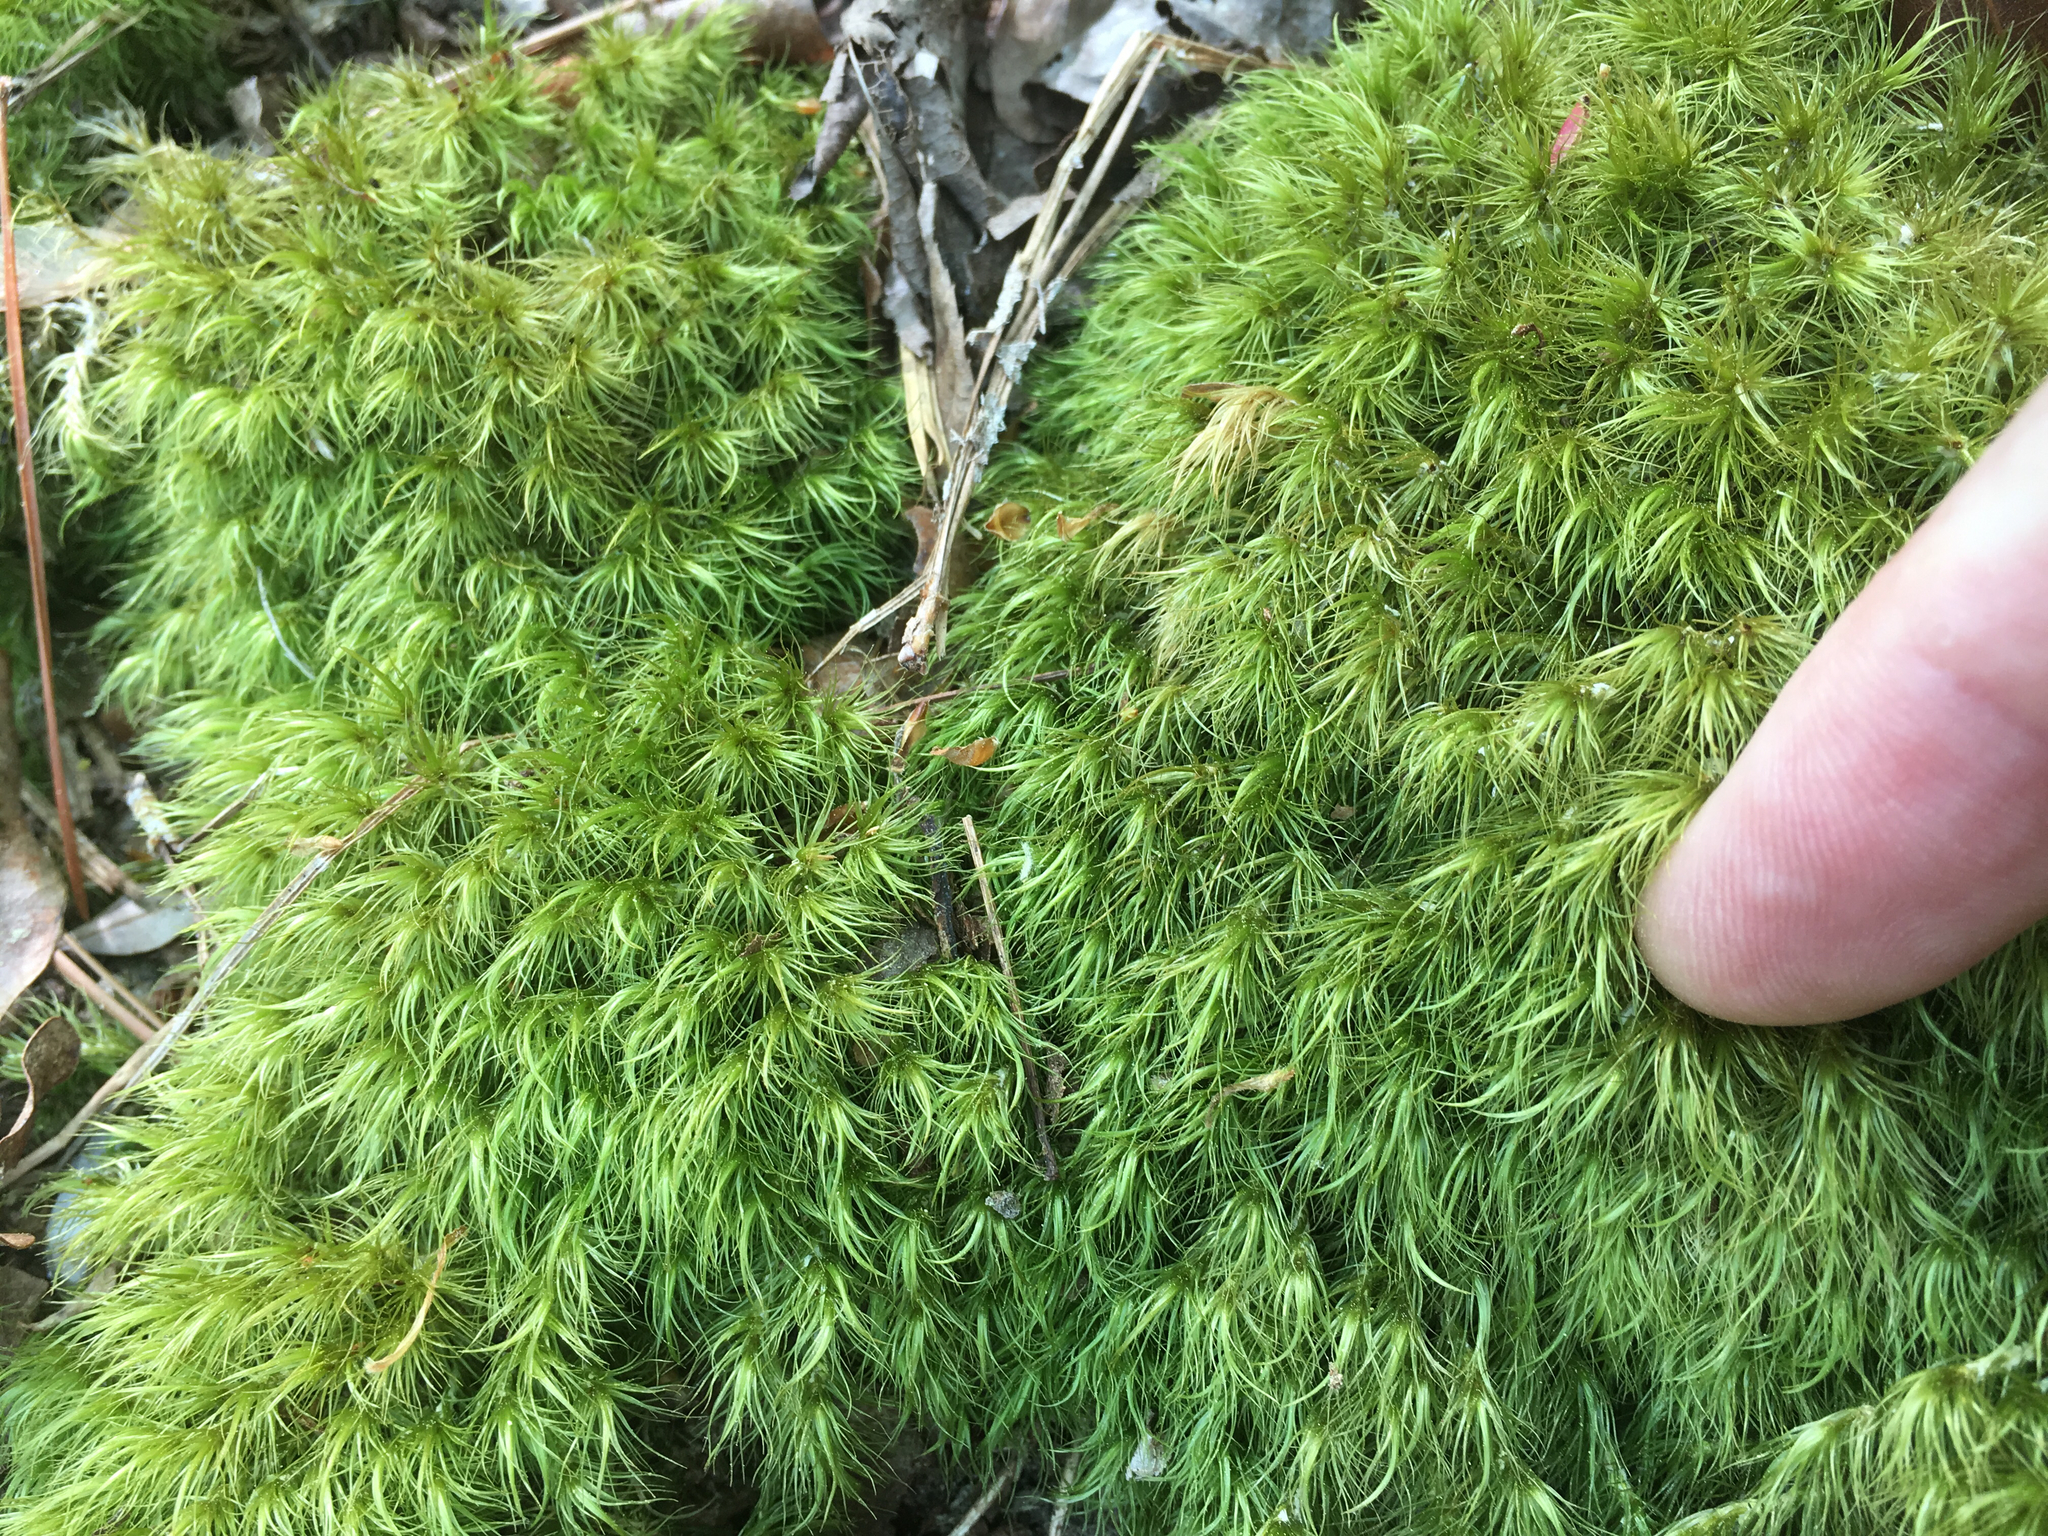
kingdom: Plantae
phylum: Bryophyta
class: Bryopsida
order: Dicranales
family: Dicranaceae
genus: Dicranum
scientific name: Dicranum scoparium
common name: Broom fork-moss
